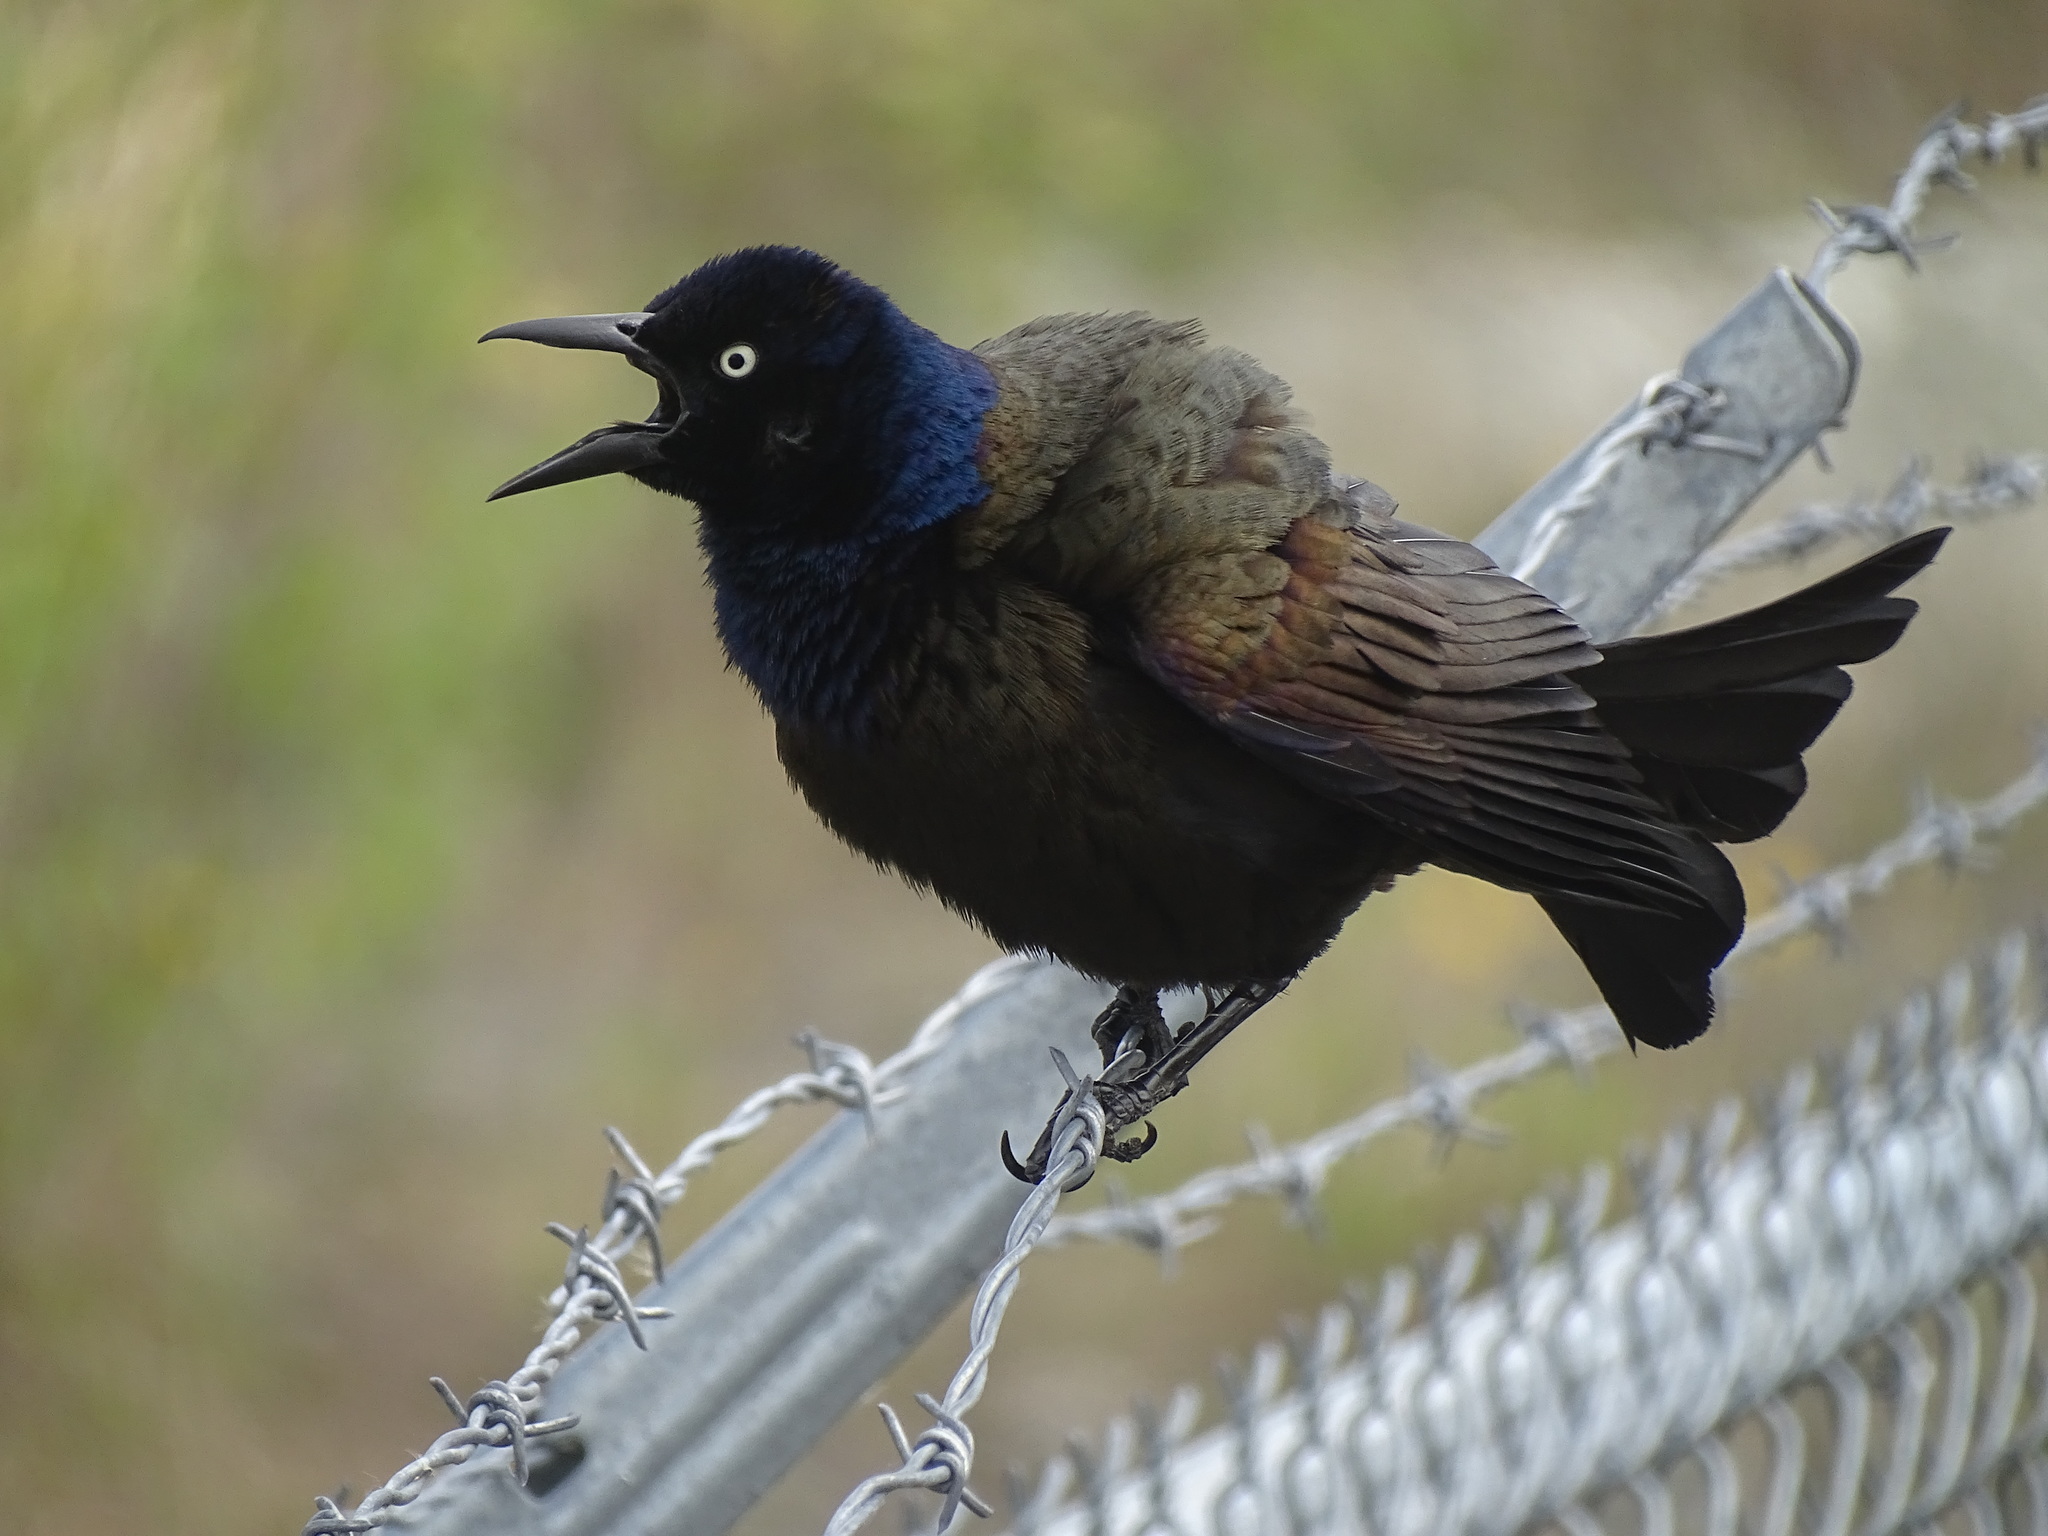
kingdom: Animalia
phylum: Chordata
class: Aves
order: Passeriformes
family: Icteridae
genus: Quiscalus
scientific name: Quiscalus quiscula
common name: Common grackle
